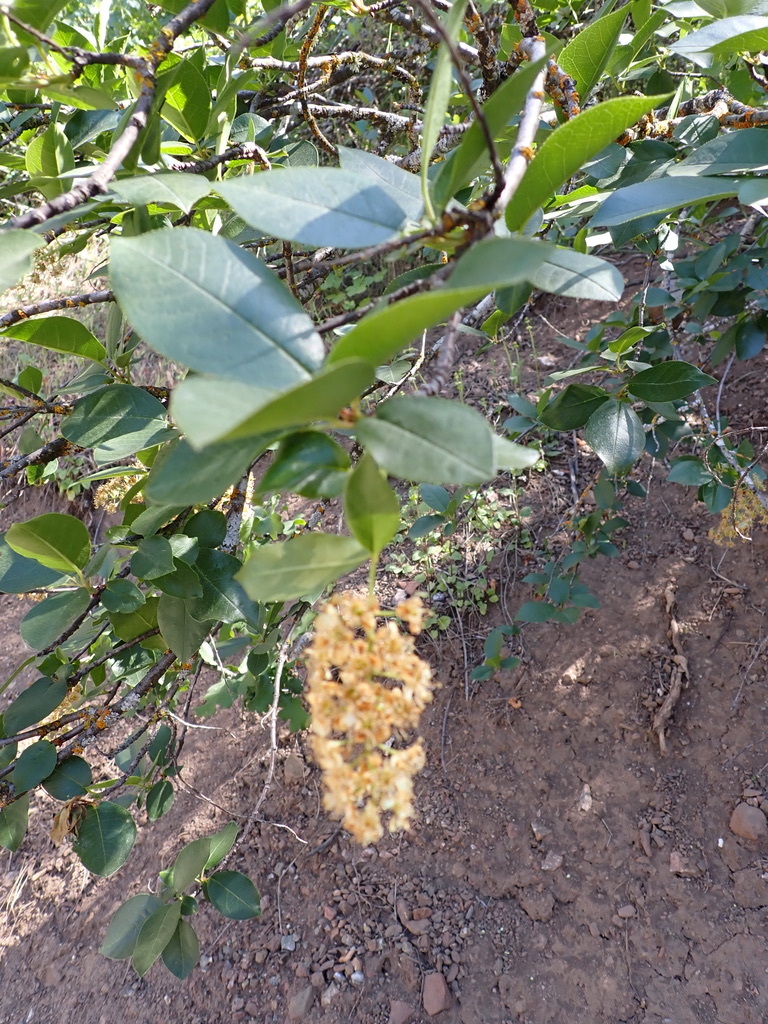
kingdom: Plantae
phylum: Tracheophyta
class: Magnoliopsida
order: Rosales
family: Rosaceae
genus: Prunus
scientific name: Prunus virginiana
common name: Chokecherry
